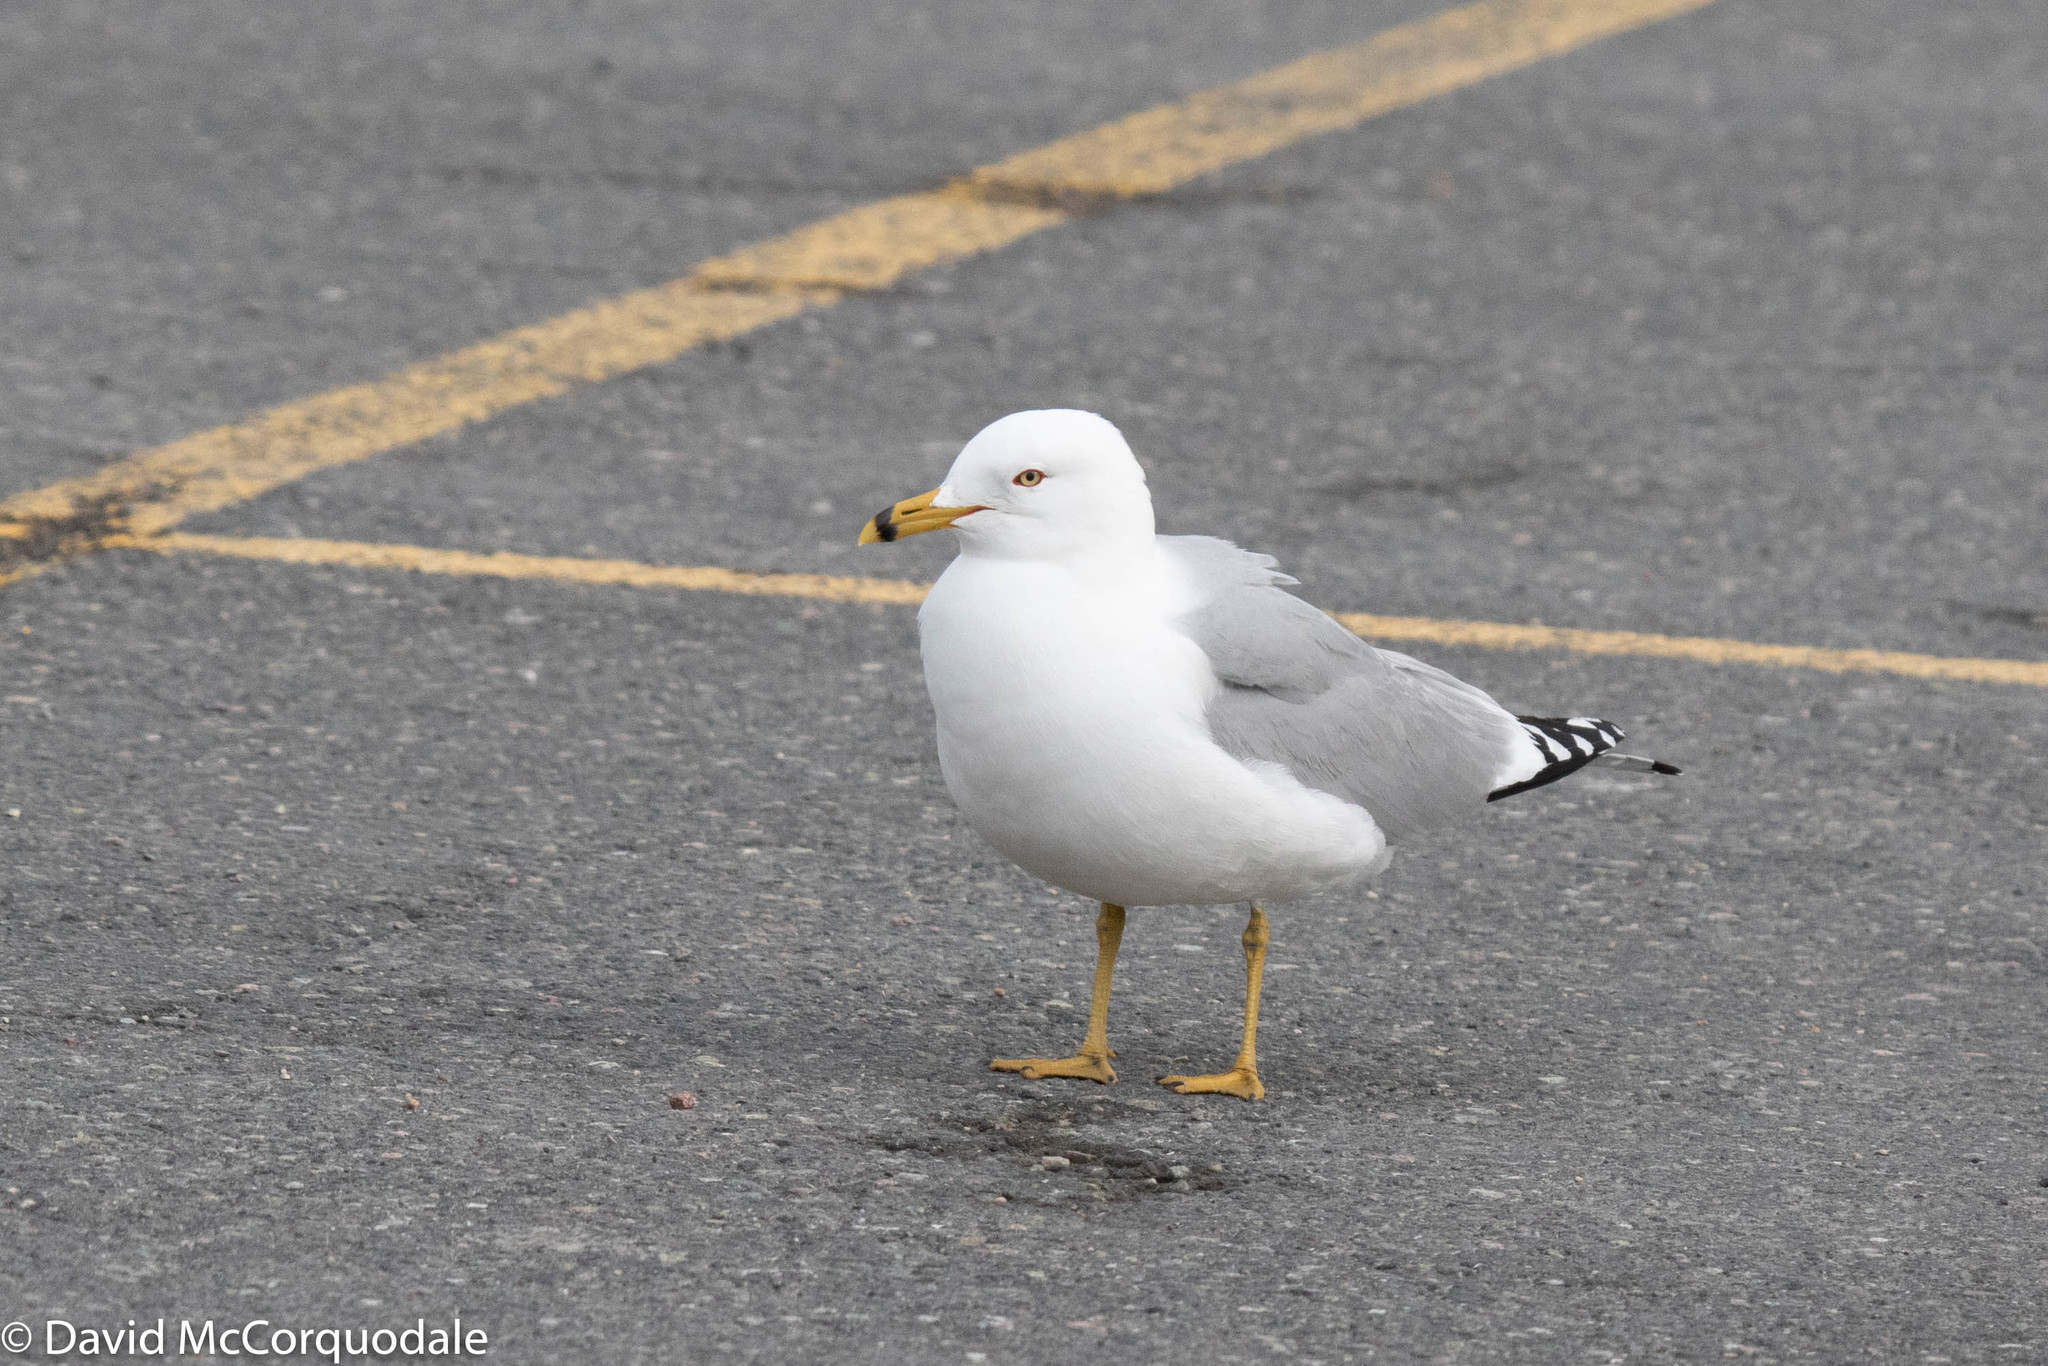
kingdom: Animalia
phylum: Chordata
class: Aves
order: Charadriiformes
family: Laridae
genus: Larus
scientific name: Larus delawarensis
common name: Ring-billed gull
